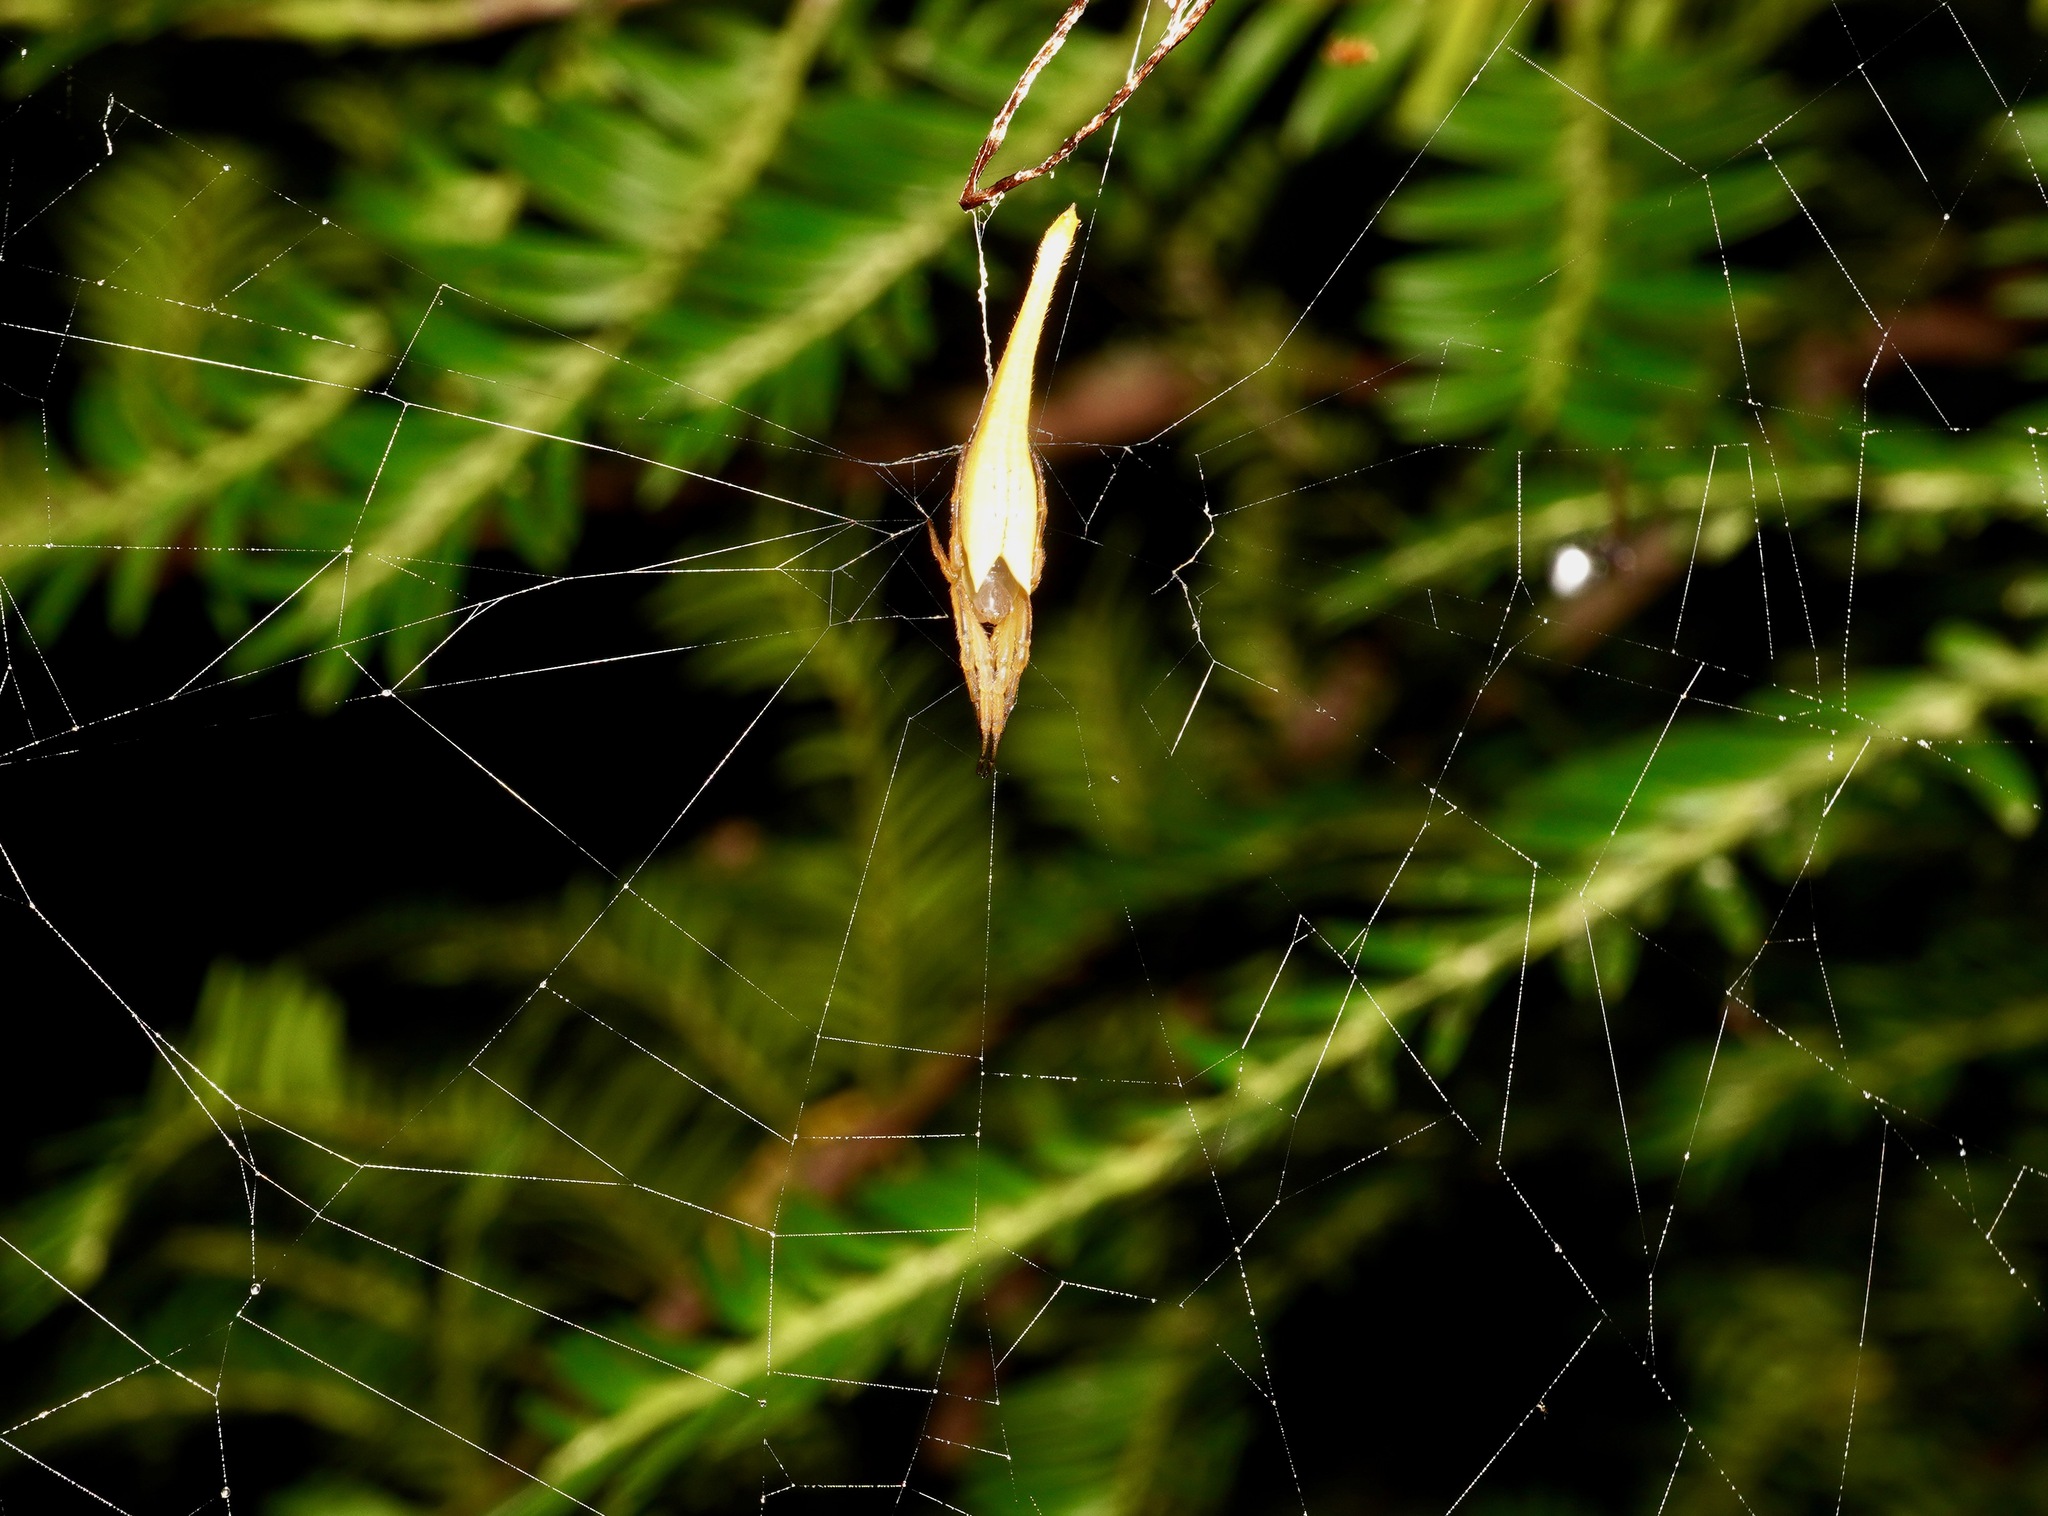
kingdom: Animalia
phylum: Arthropoda
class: Arachnida
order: Araneae
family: Araneidae
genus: Arachnura
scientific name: Arachnura feredayi
